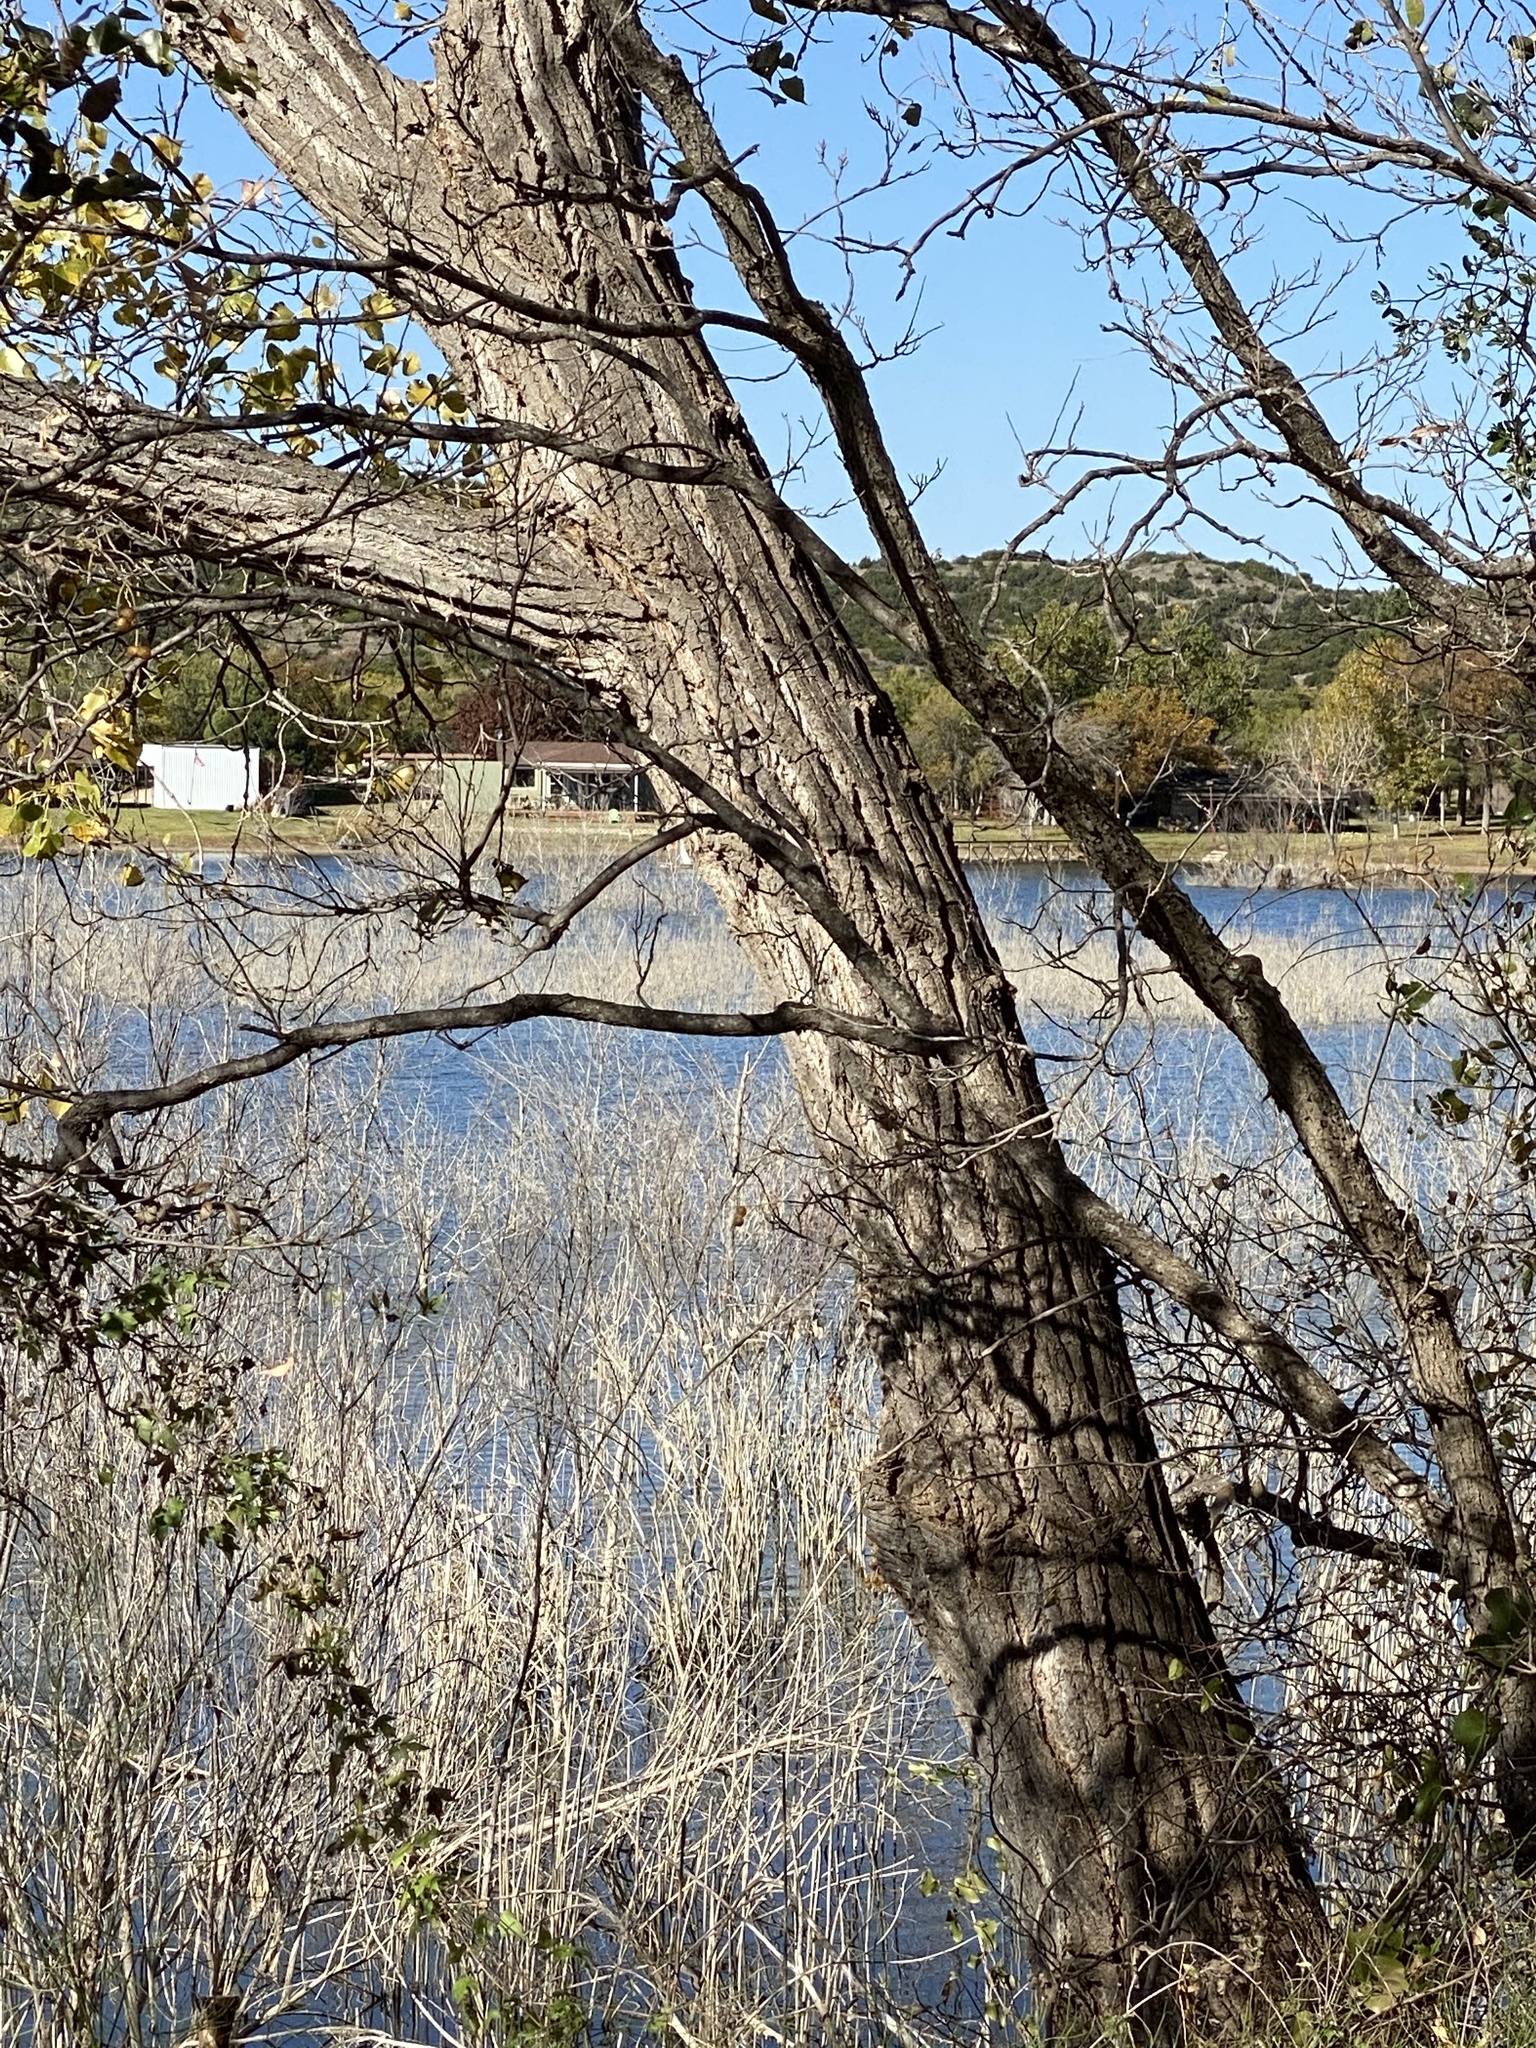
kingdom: Plantae
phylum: Tracheophyta
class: Magnoliopsida
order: Malpighiales
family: Salicaceae
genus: Populus
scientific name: Populus deltoides
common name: Eastern cottonwood
